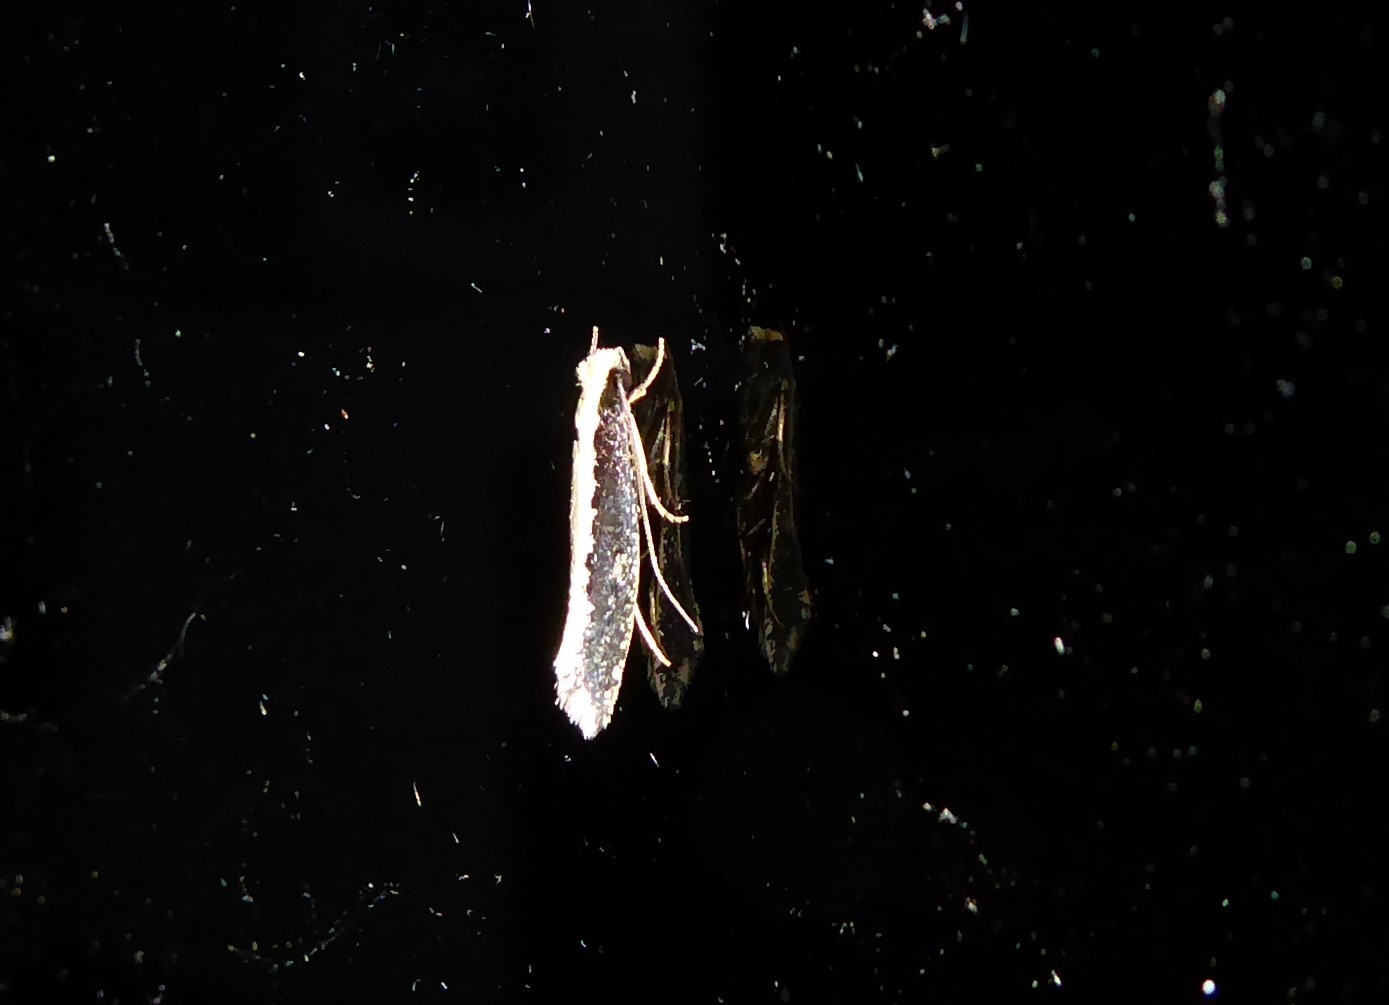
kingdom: Animalia
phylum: Arthropoda
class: Insecta
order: Lepidoptera
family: Tineidae
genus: Monopis
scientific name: Monopis ethelella
